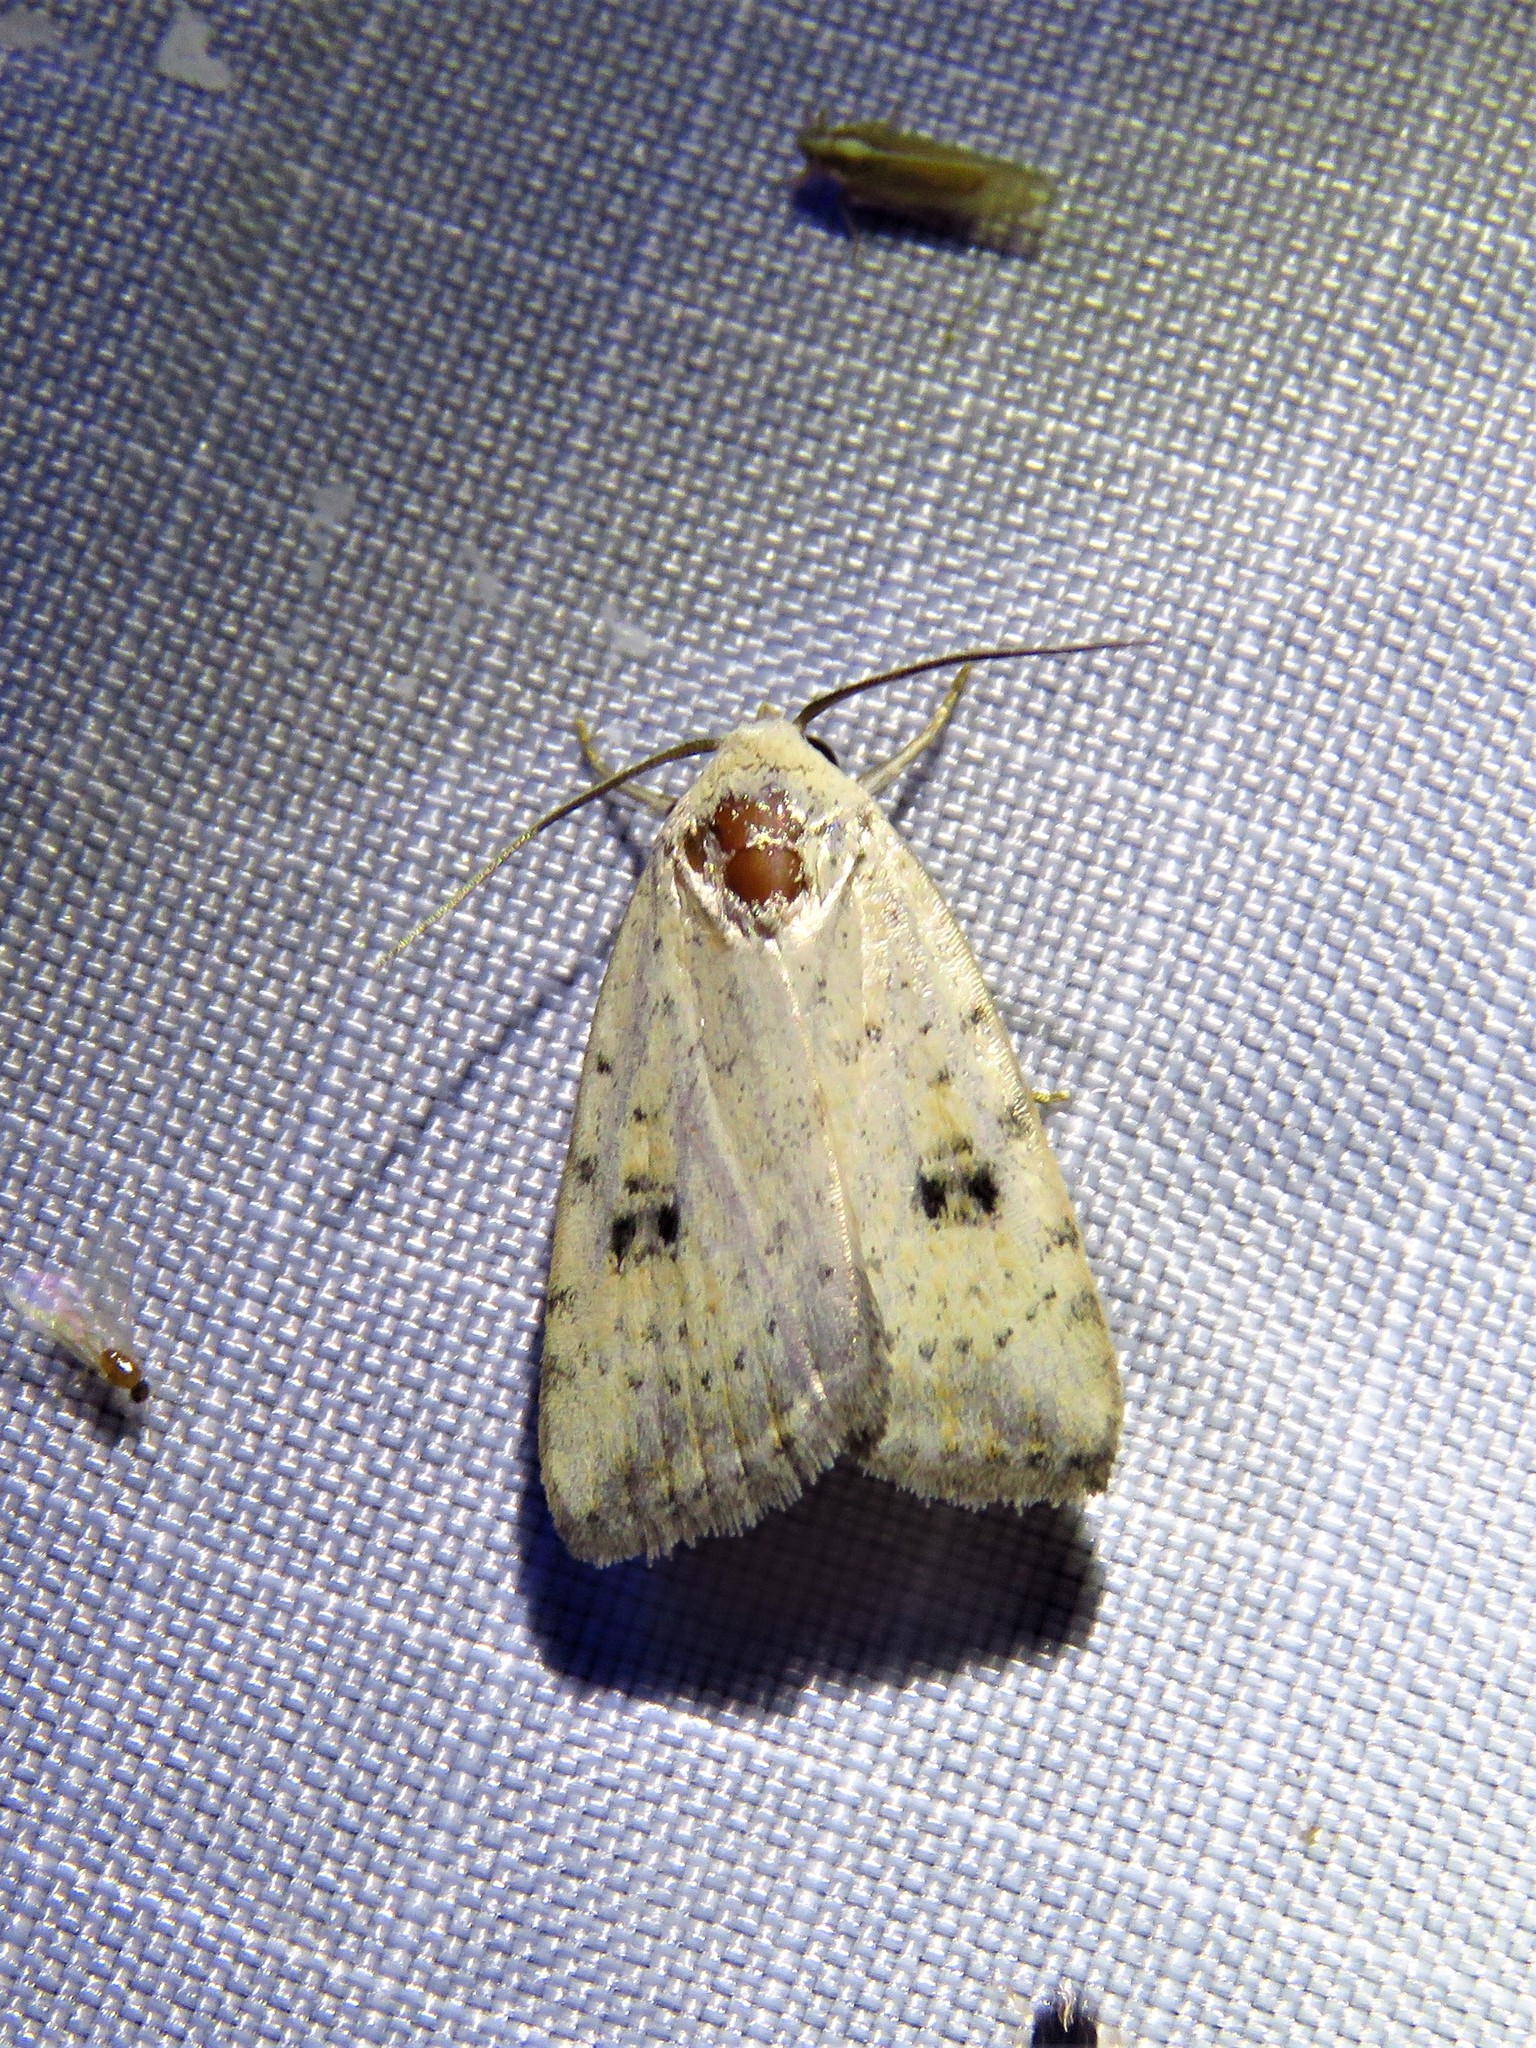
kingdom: Animalia
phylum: Arthropoda
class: Insecta
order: Lepidoptera
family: Noctuidae
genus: Micrathetis
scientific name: Micrathetis triplex
